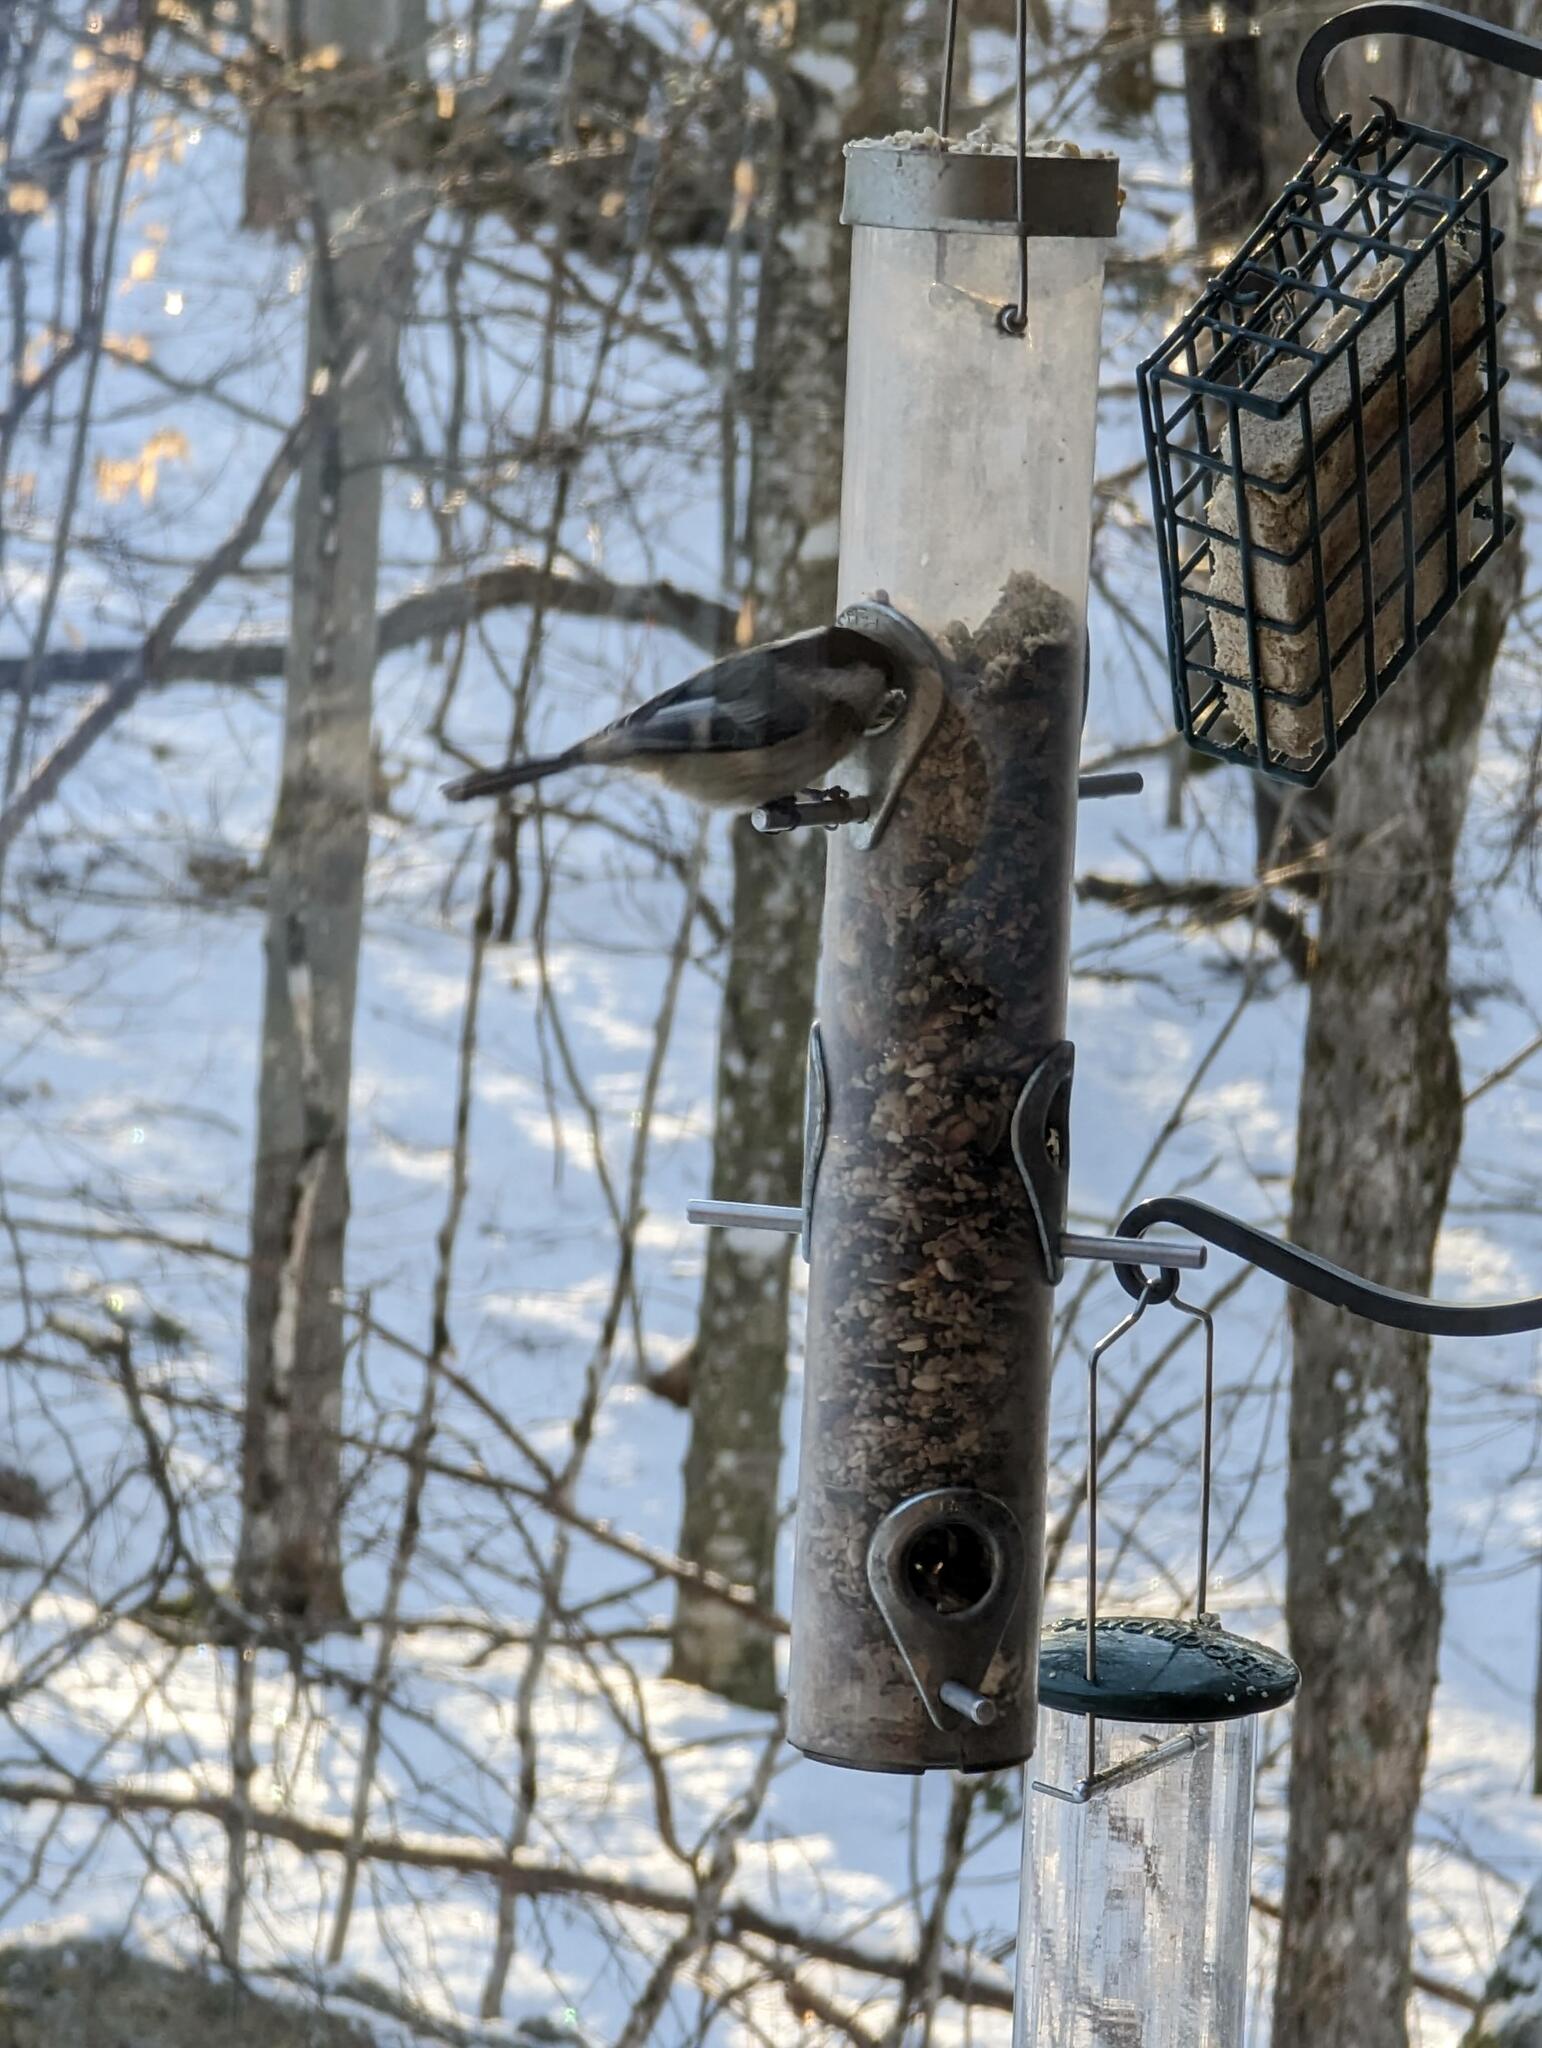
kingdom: Animalia
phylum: Chordata
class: Aves
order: Passeriformes
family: Paridae
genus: Poecile
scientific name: Poecile atricapillus
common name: Black-capped chickadee
